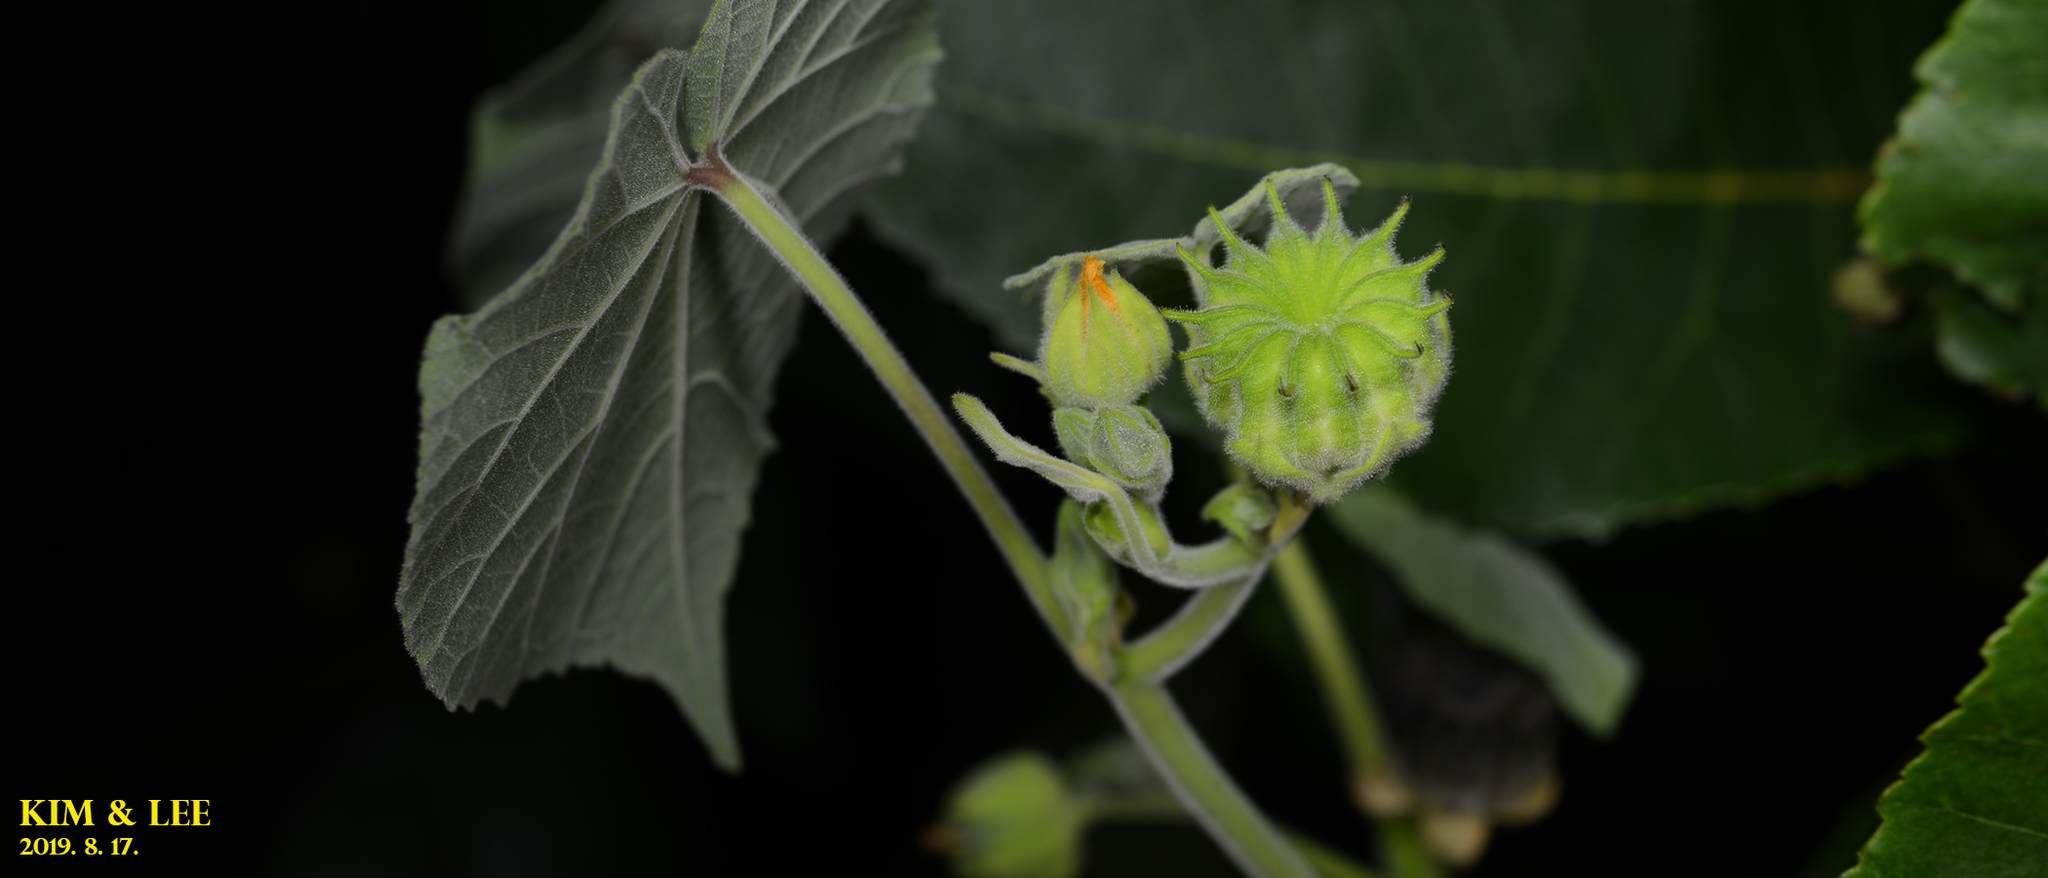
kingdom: Plantae
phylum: Tracheophyta
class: Magnoliopsida
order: Malvales
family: Malvaceae
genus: Abutilon
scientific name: Abutilon theophrasti
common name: Velvetleaf
